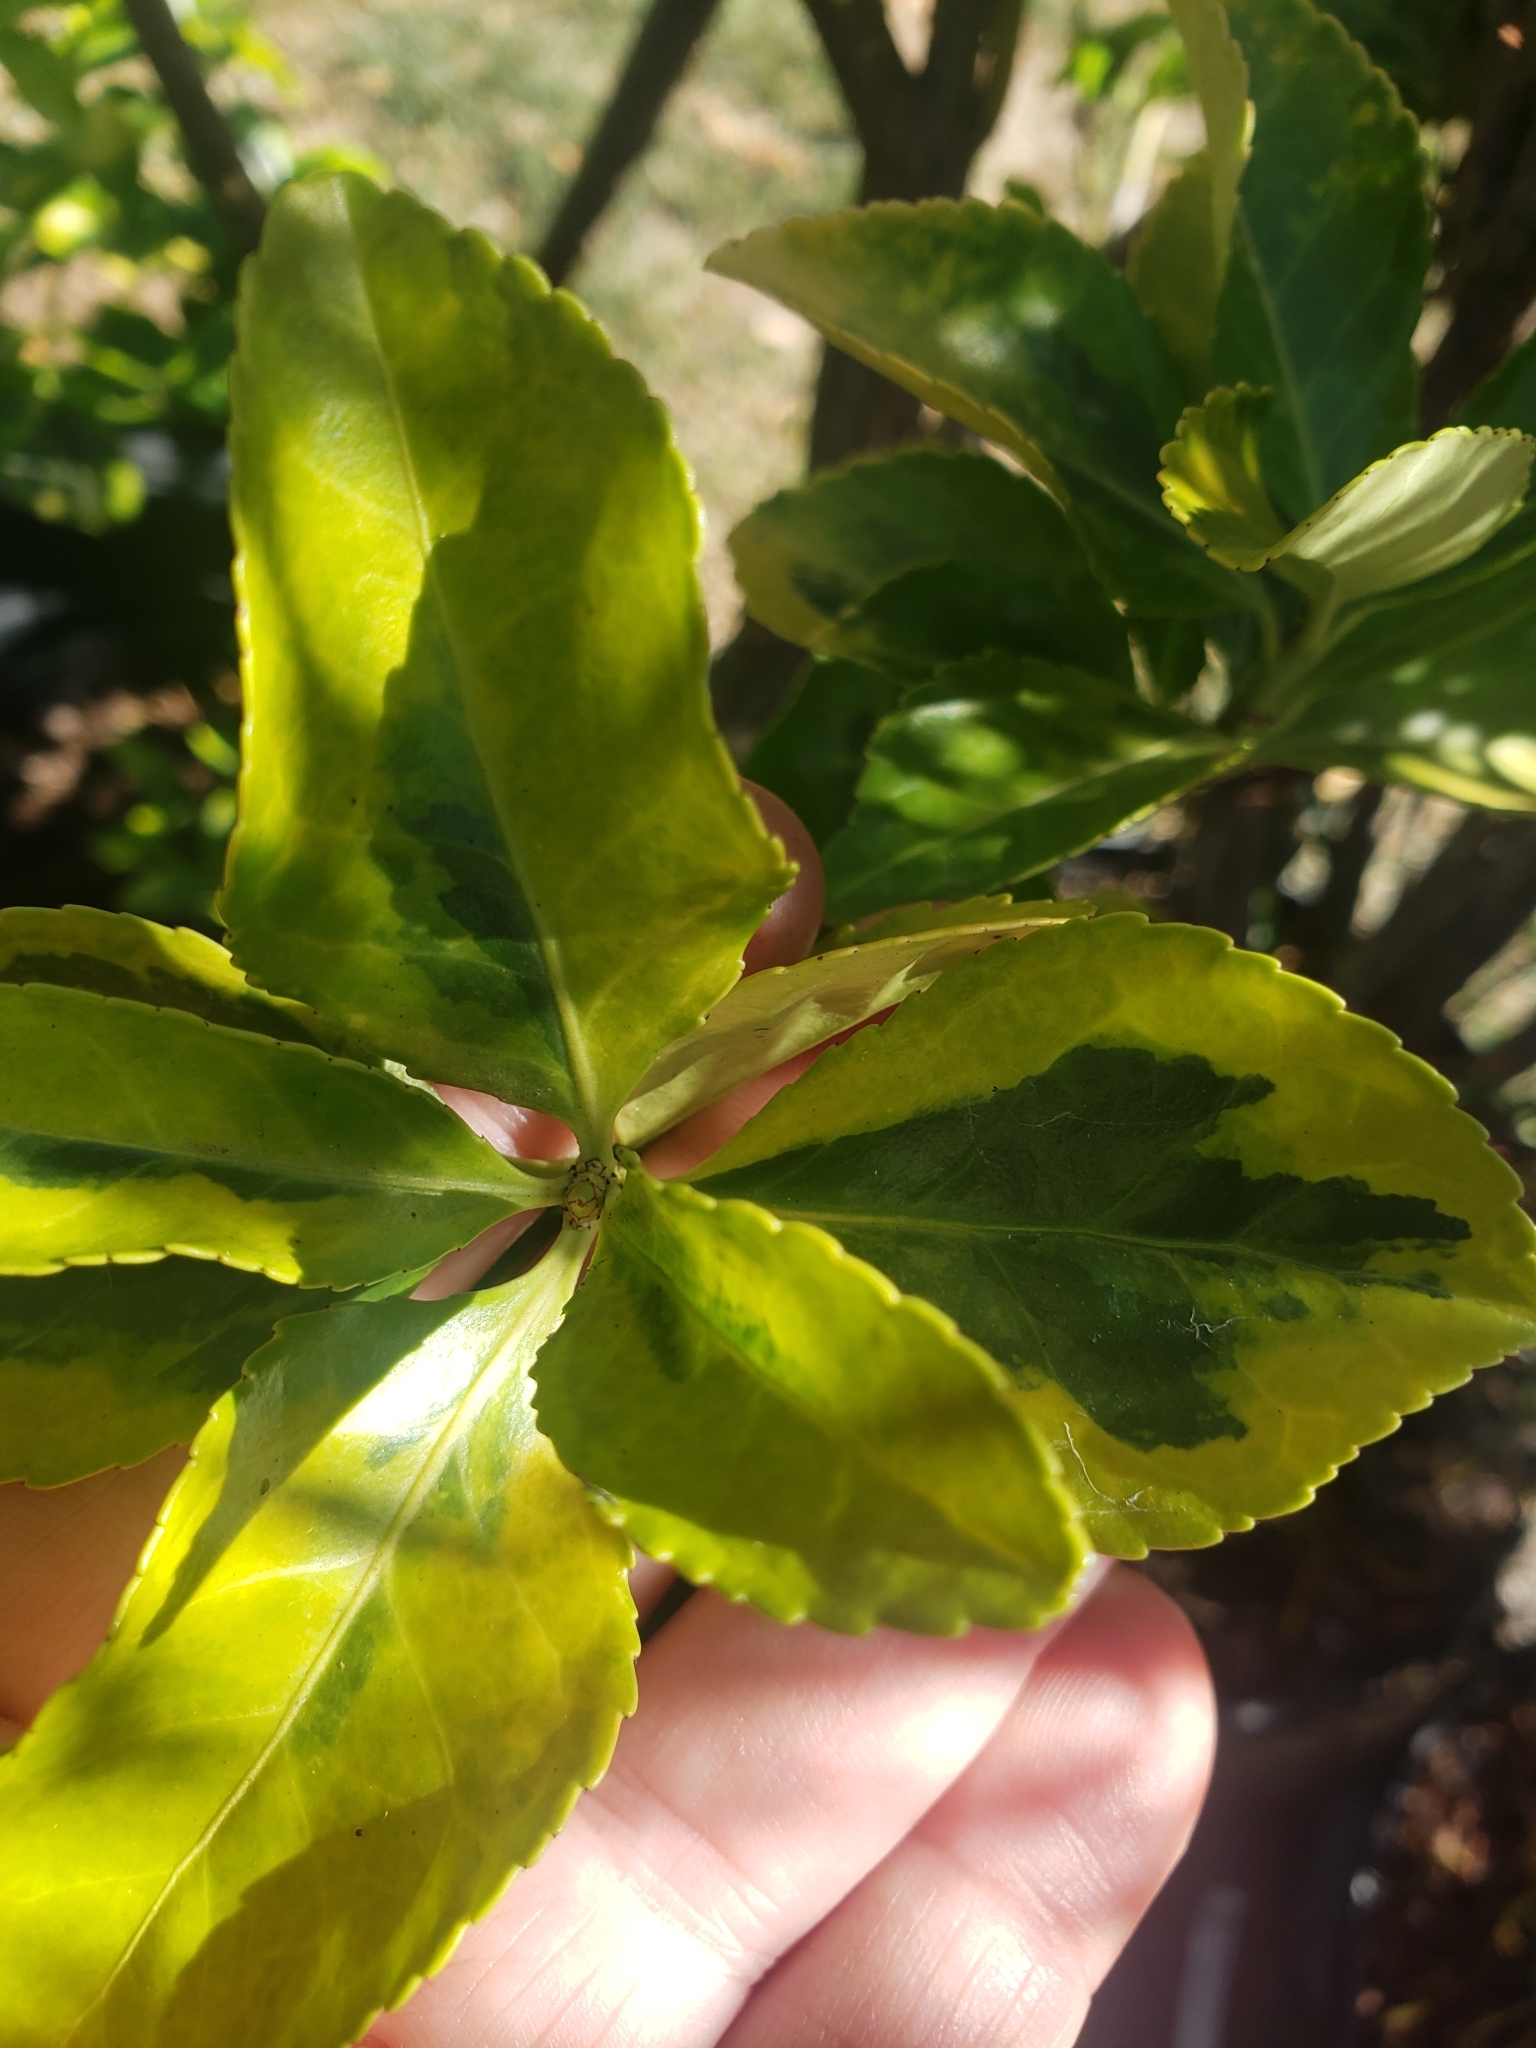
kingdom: Plantae
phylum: Tracheophyta
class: Magnoliopsida
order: Celastrales
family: Celastraceae
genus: Euonymus
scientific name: Euonymus japonicus
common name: Japanese spindletree
